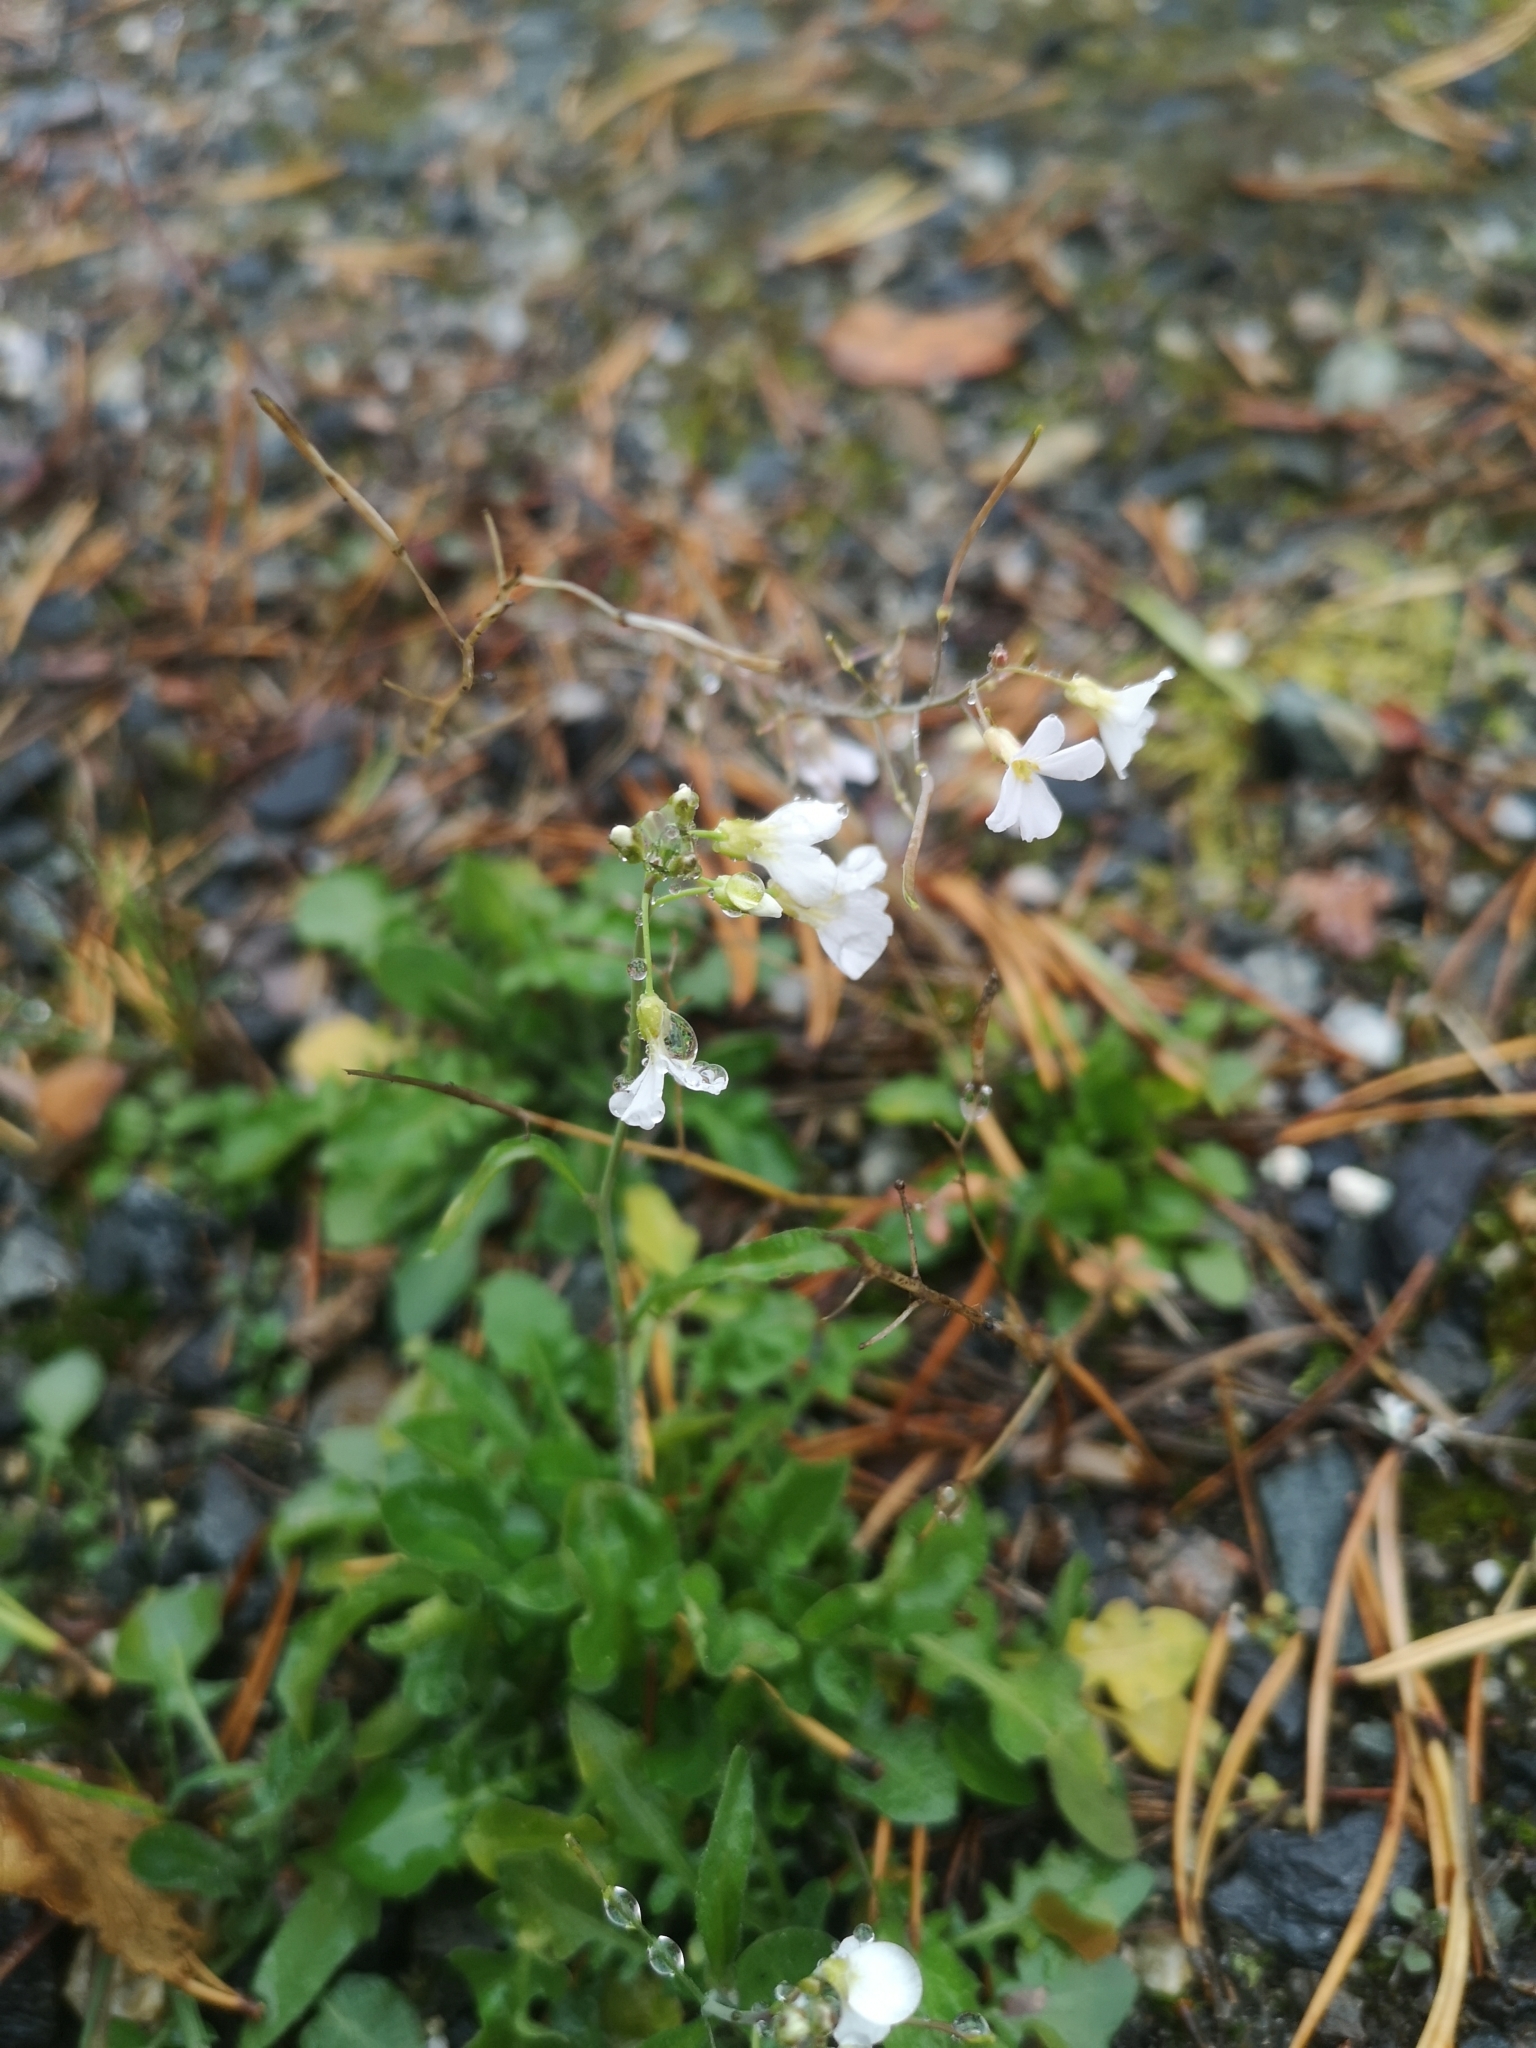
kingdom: Plantae
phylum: Tracheophyta
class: Magnoliopsida
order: Brassicales
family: Brassicaceae
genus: Arabidopsis
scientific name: Arabidopsis arenosa
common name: Sand rock-cress
